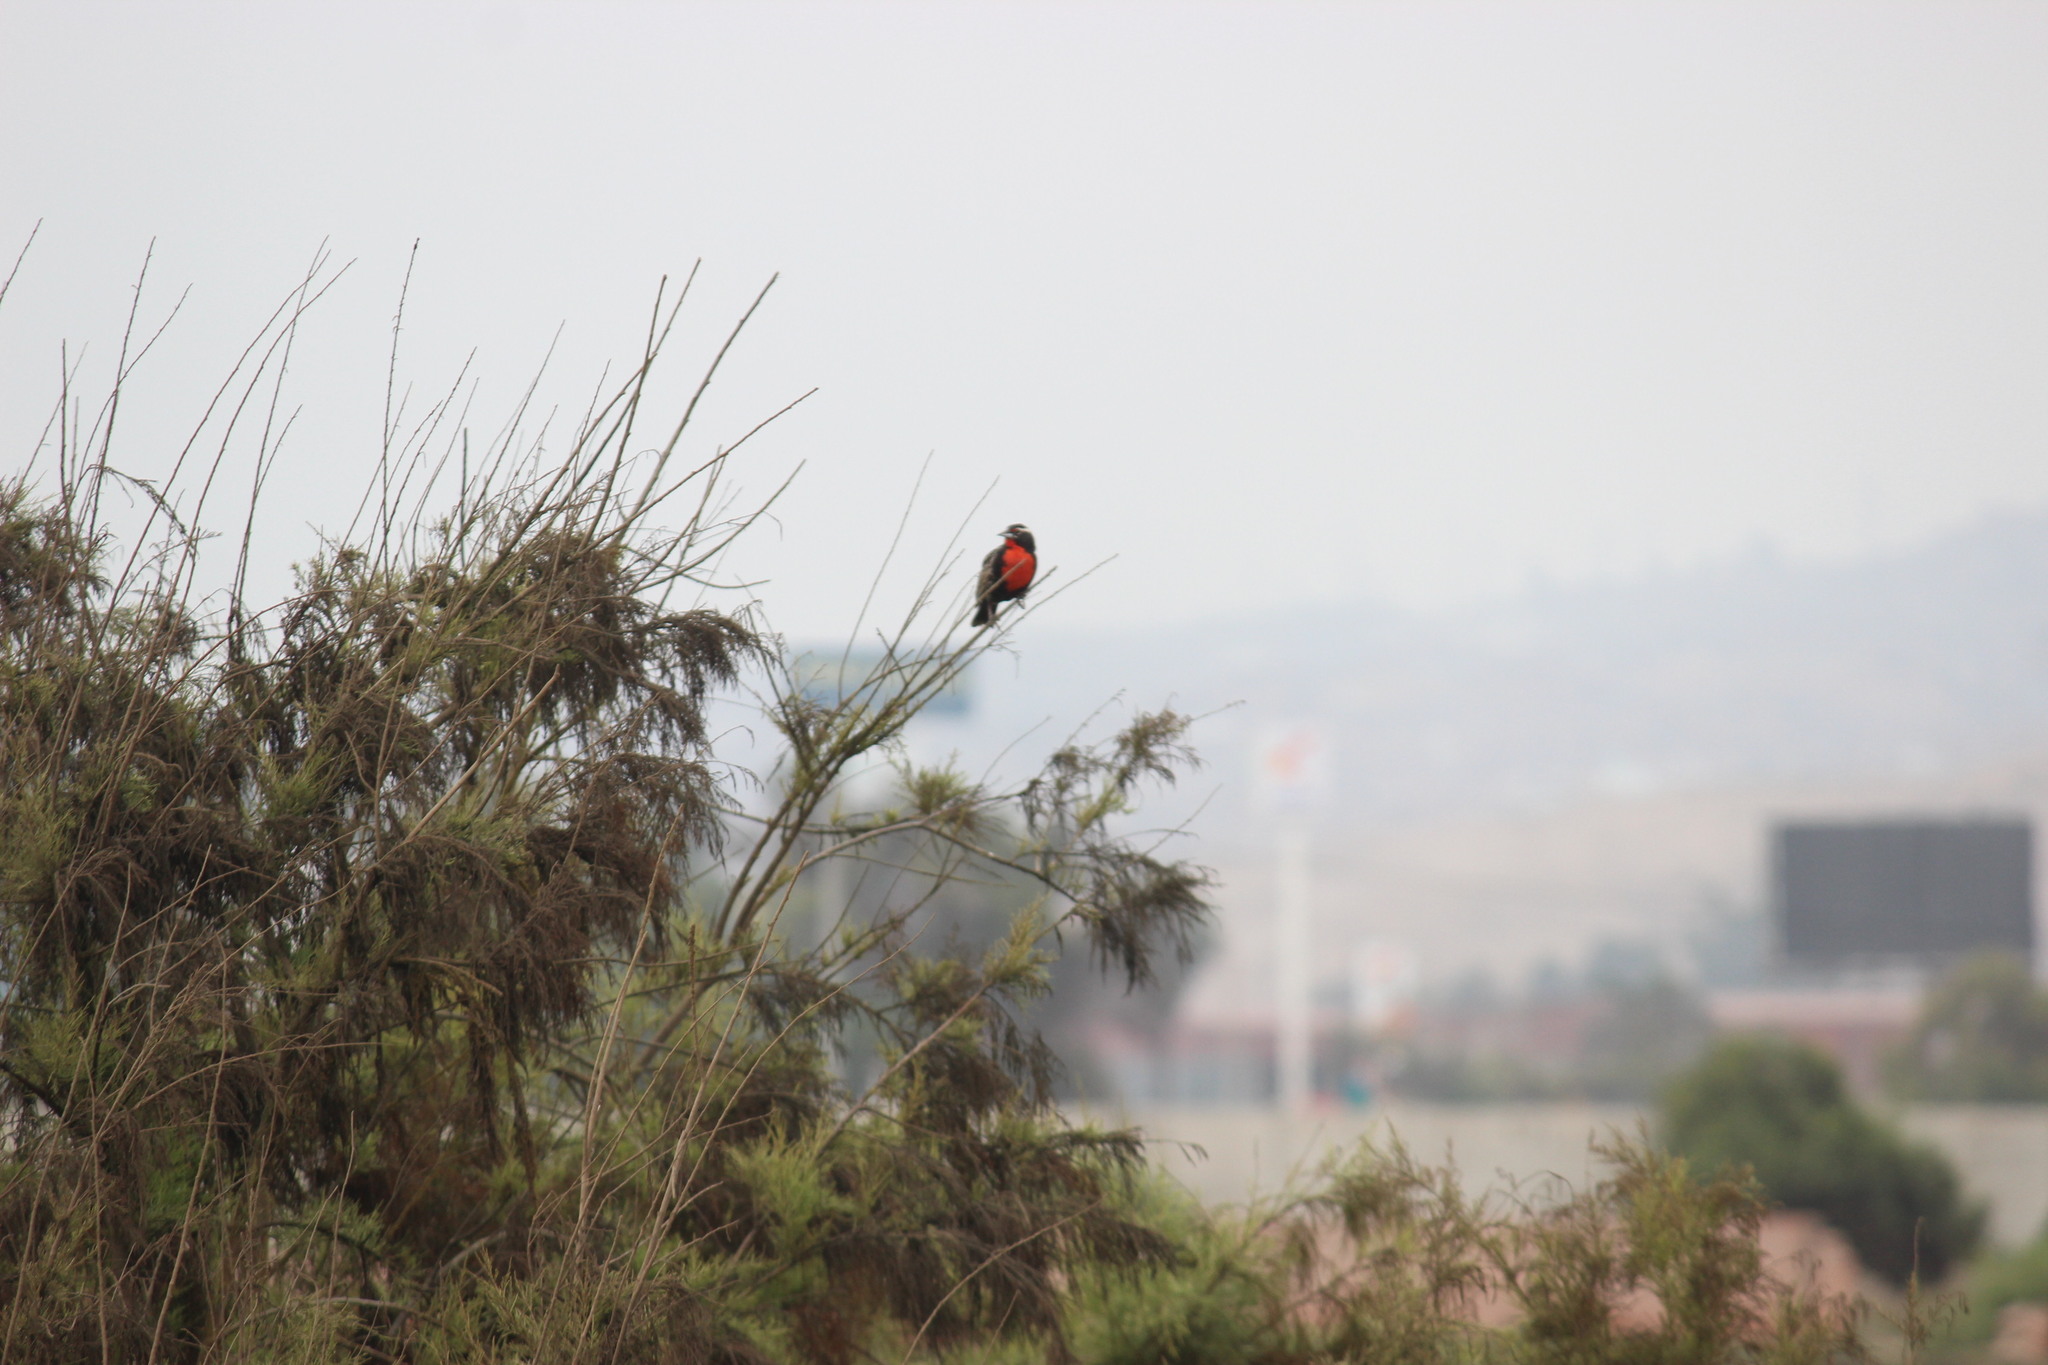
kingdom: Animalia
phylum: Chordata
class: Aves
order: Passeriformes
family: Icteridae
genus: Sturnella
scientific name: Sturnella bellicosa
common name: Peruvian meadowlark
